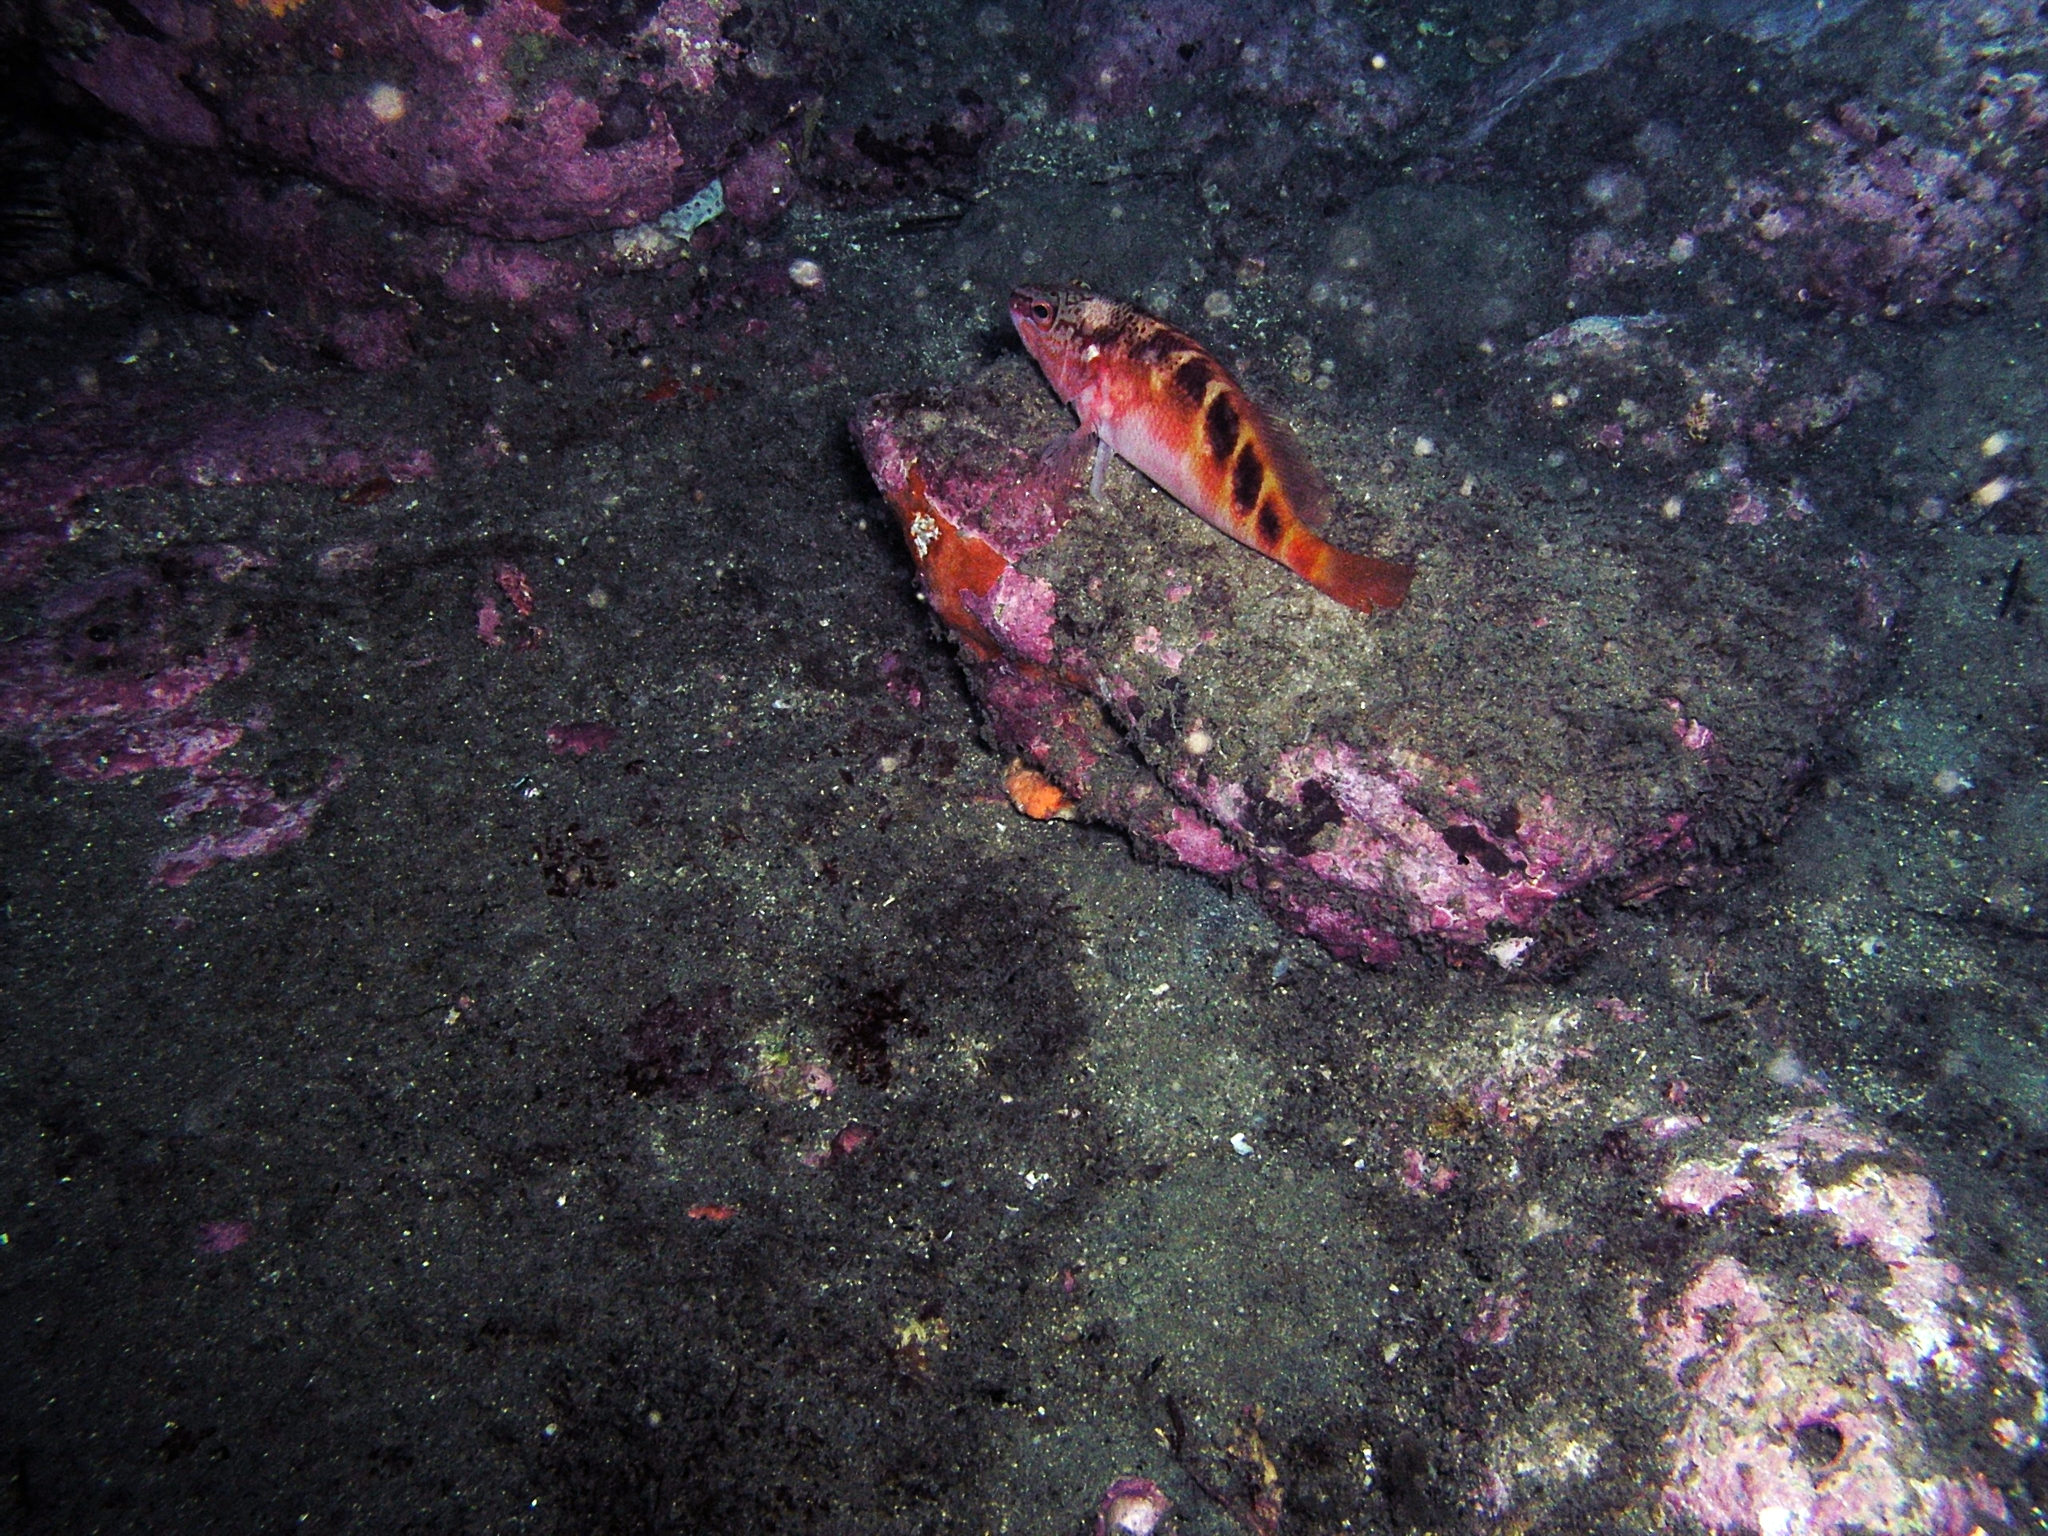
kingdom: Animalia
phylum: Chordata
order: Perciformes
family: Serranidae
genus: Hypoplectrodes
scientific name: Hypoplectrodes maccullochi
